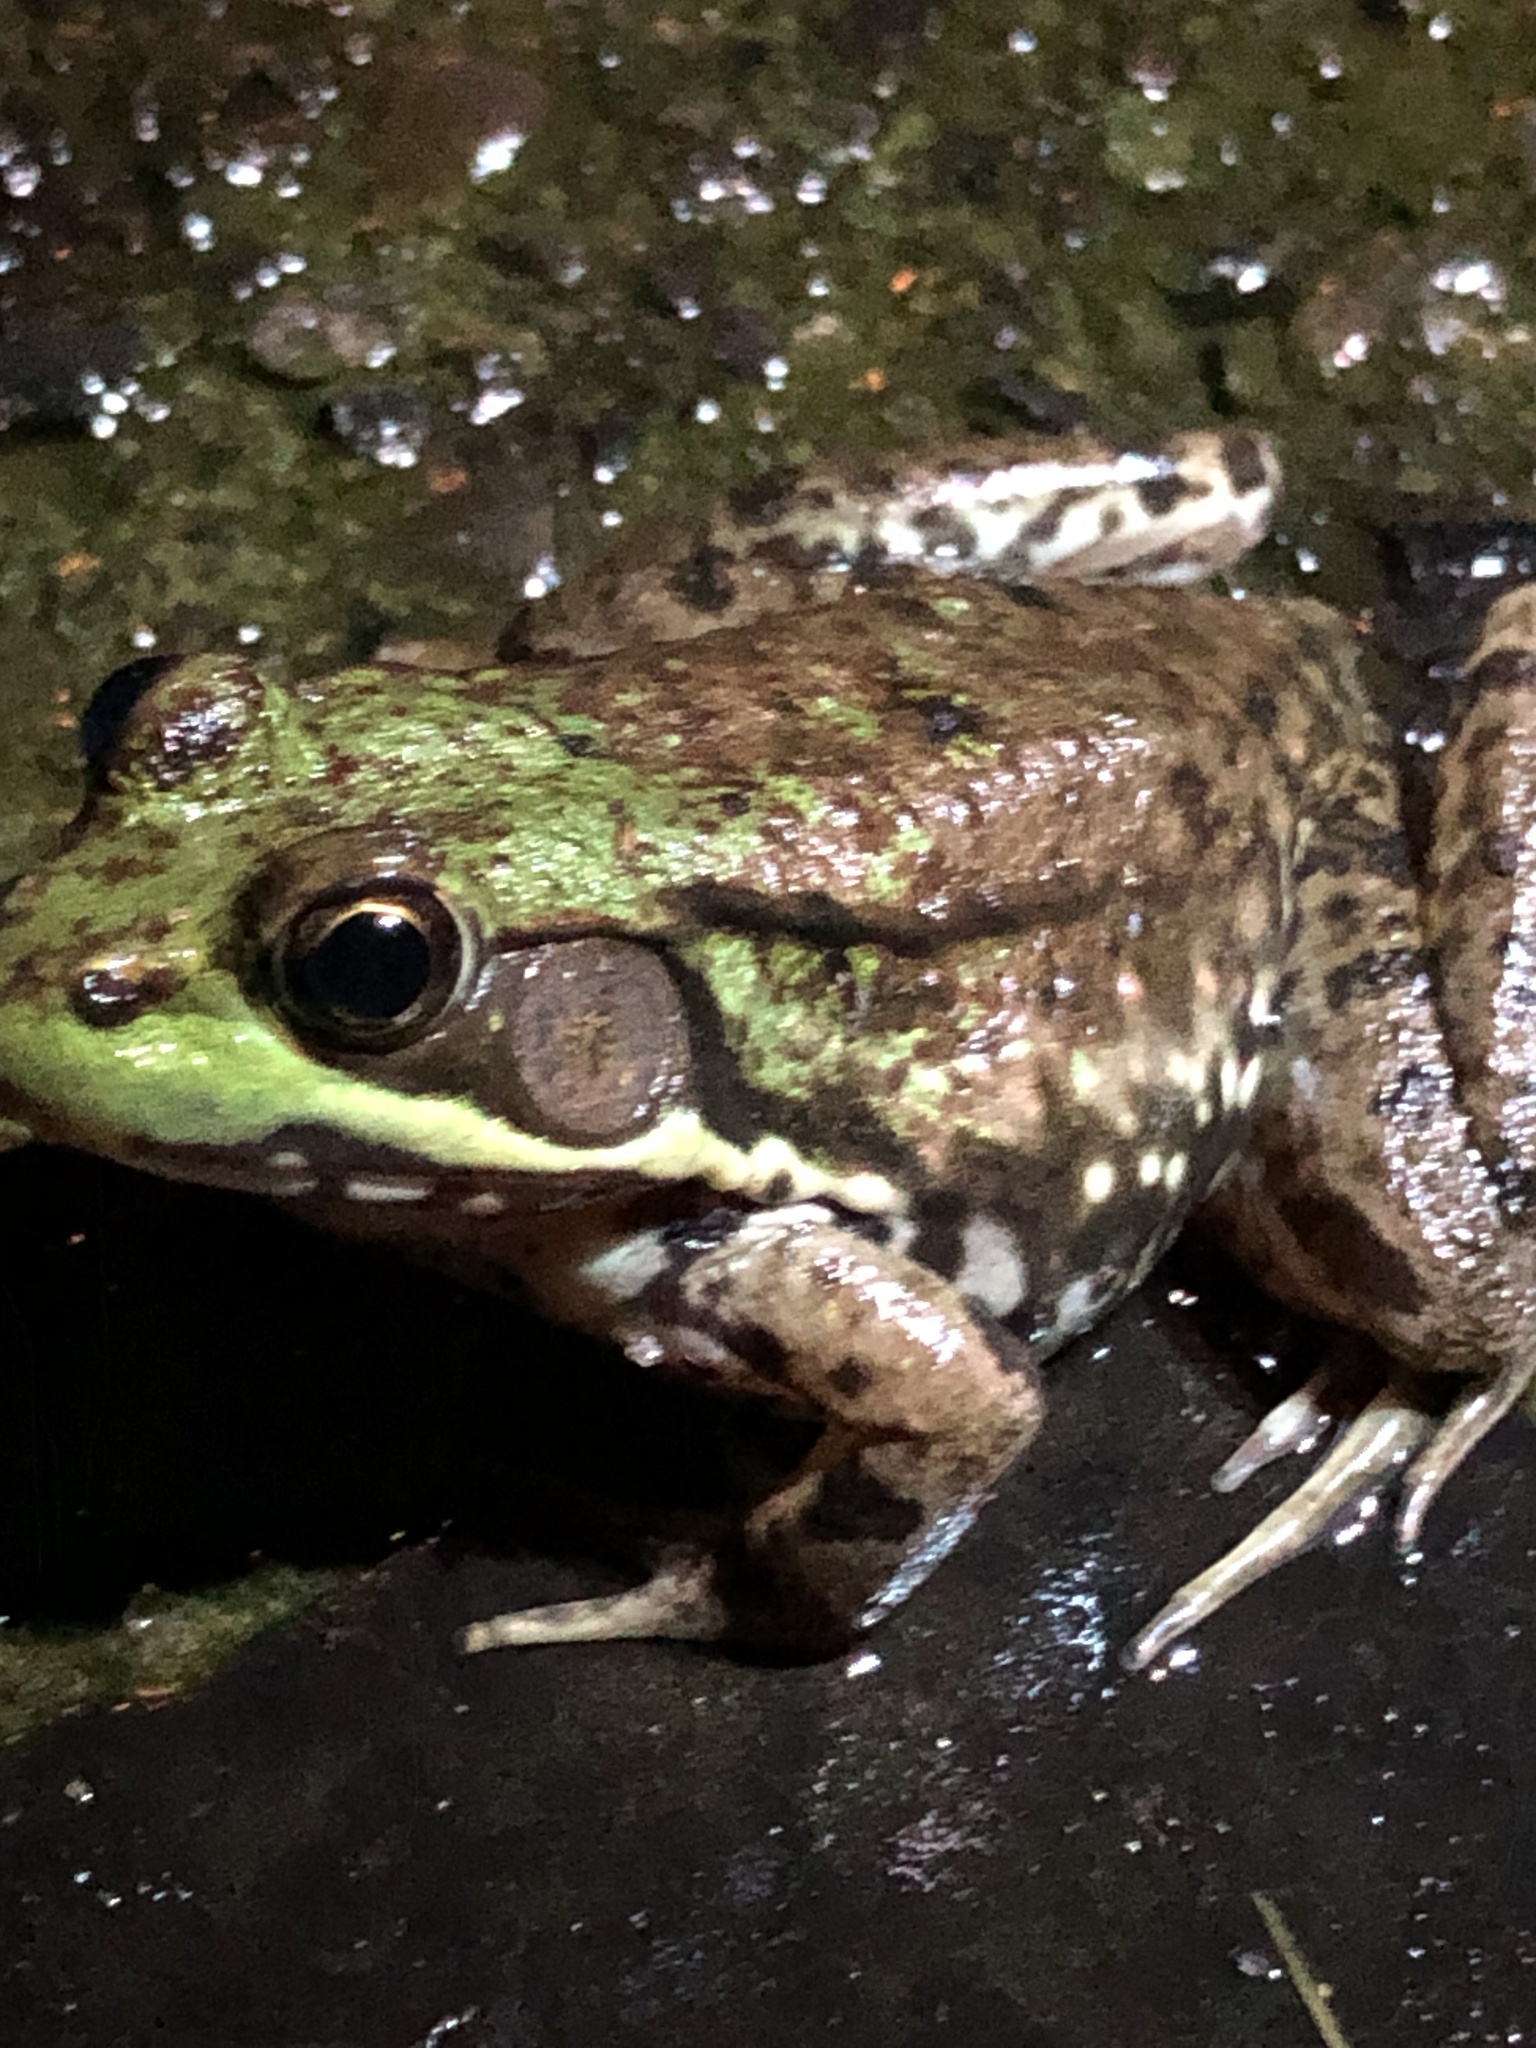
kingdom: Animalia
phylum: Chordata
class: Amphibia
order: Anura
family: Ranidae
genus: Lithobates
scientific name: Lithobates clamitans
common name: Green frog
